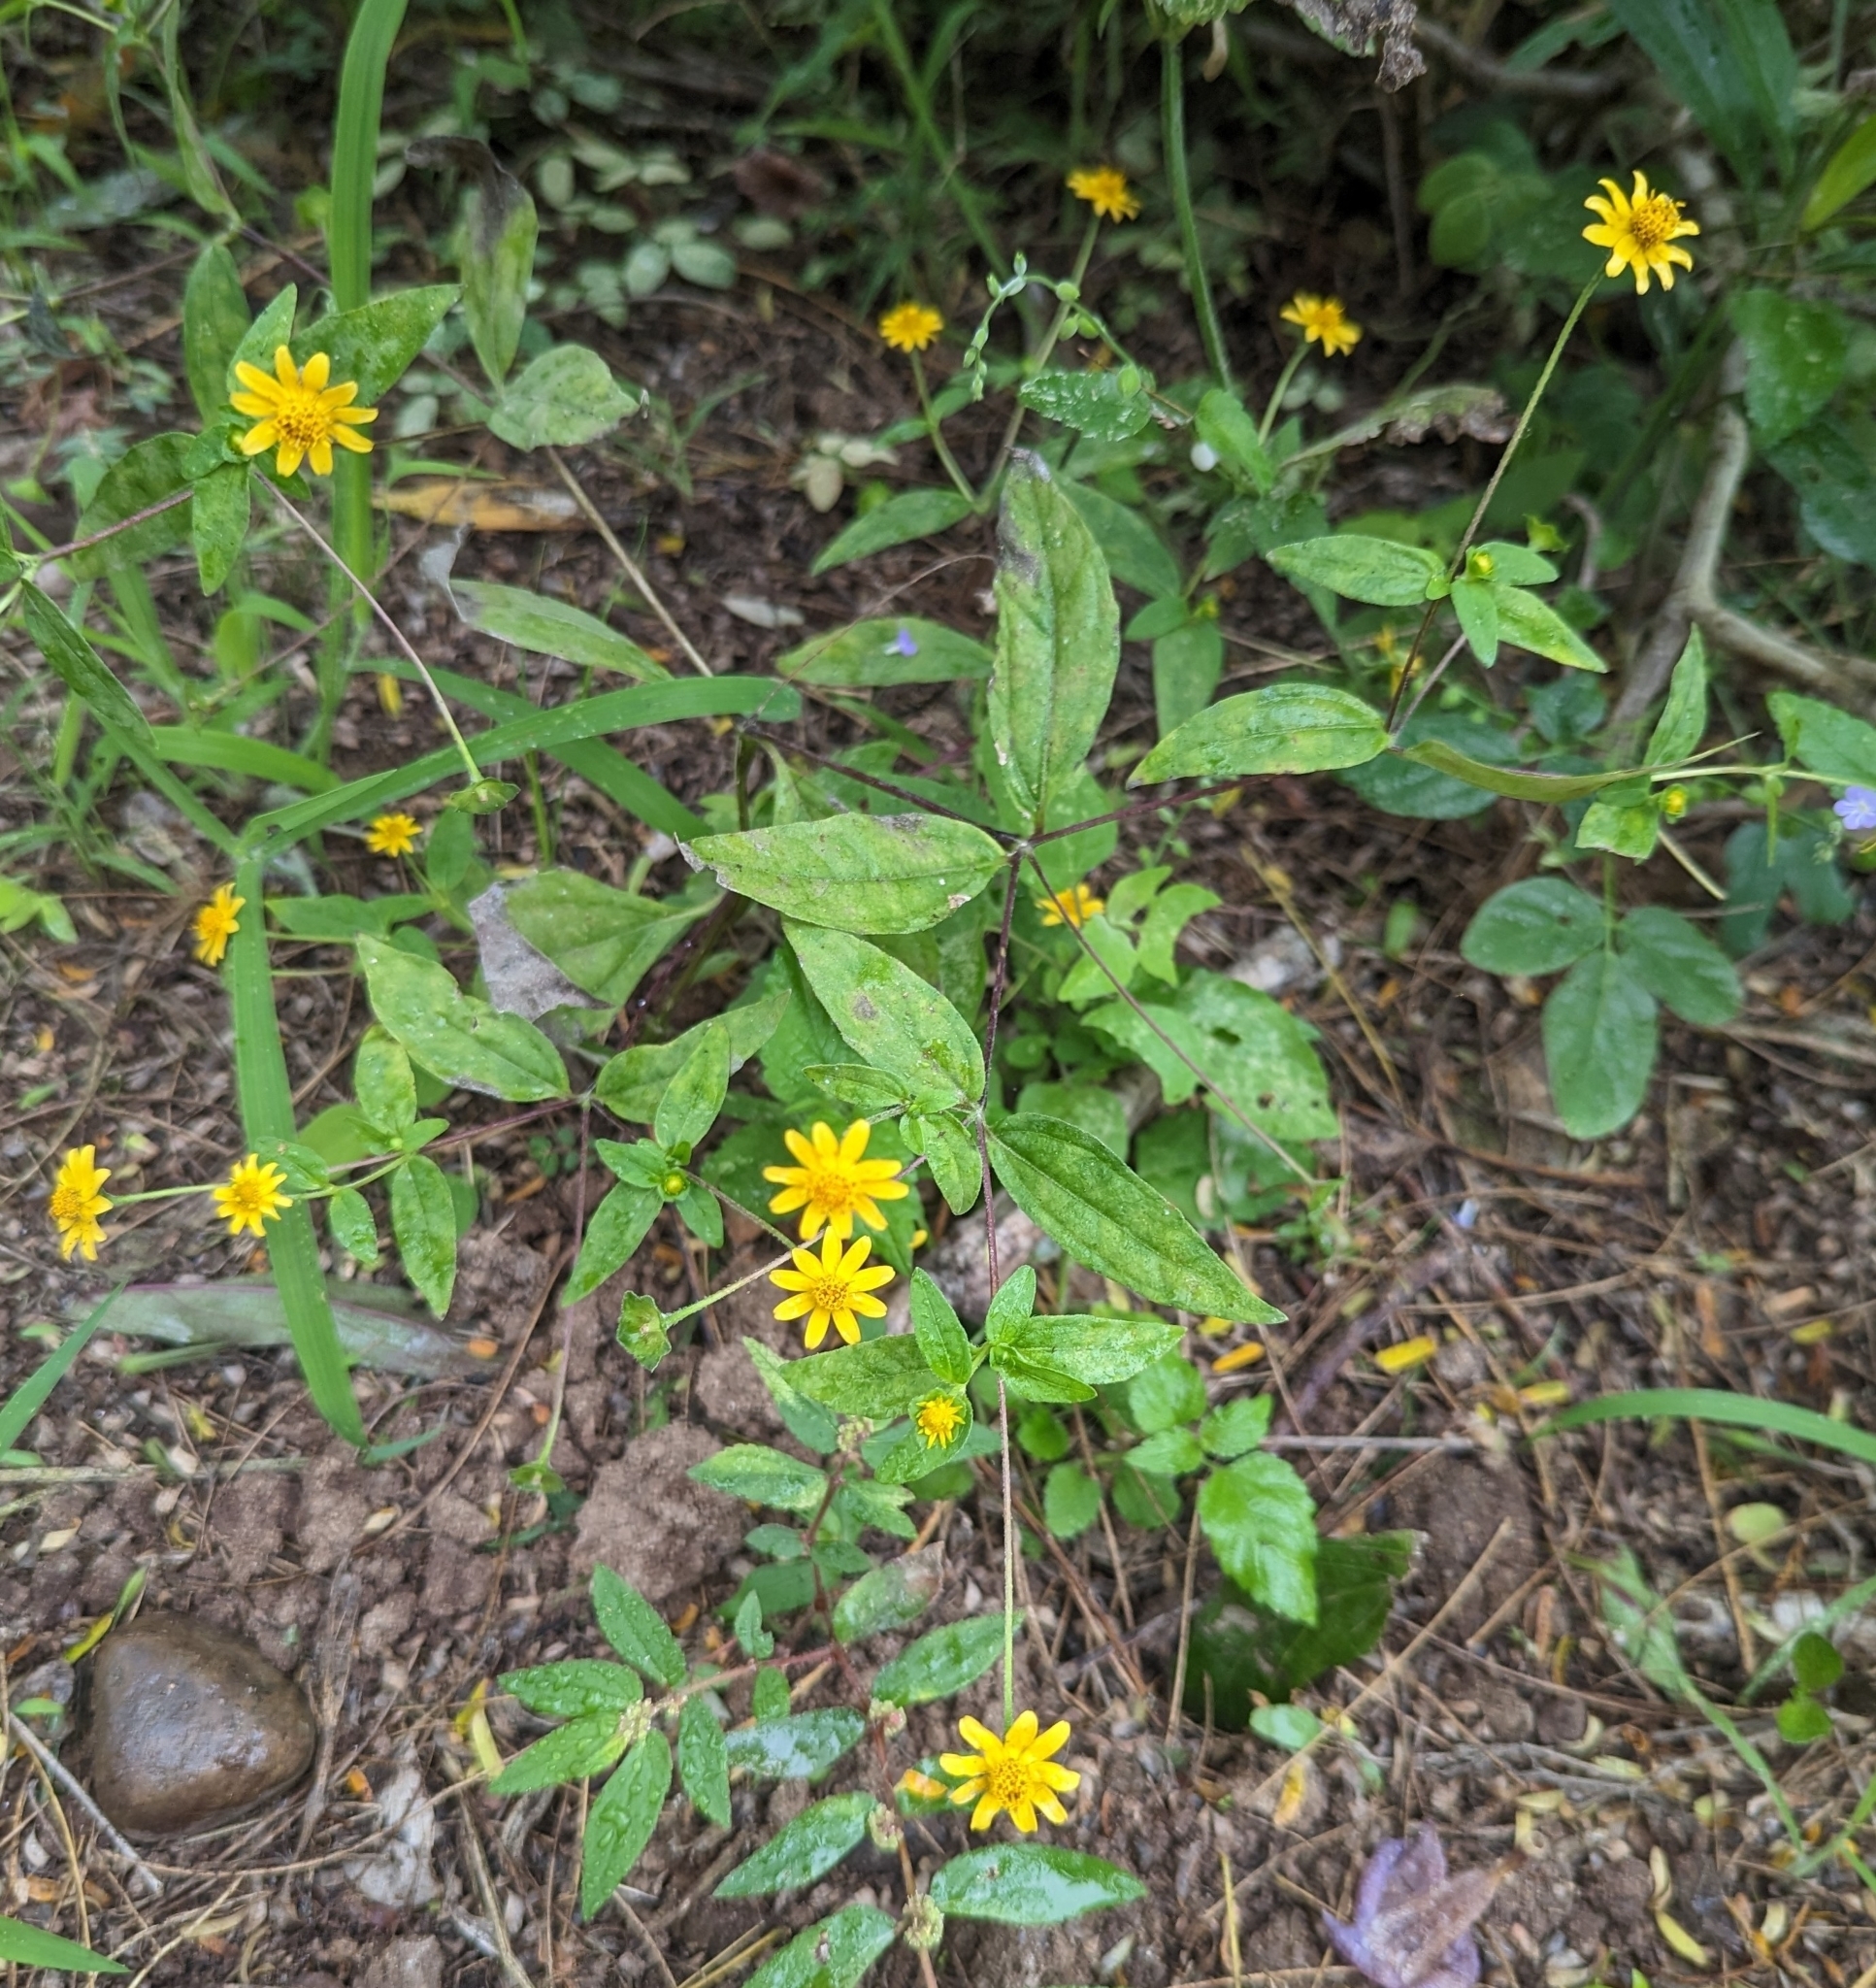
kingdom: Plantae
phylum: Tracheophyta
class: Magnoliopsida
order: Asterales
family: Asteraceae
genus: Melampodium
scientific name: Melampodium divaricatum
